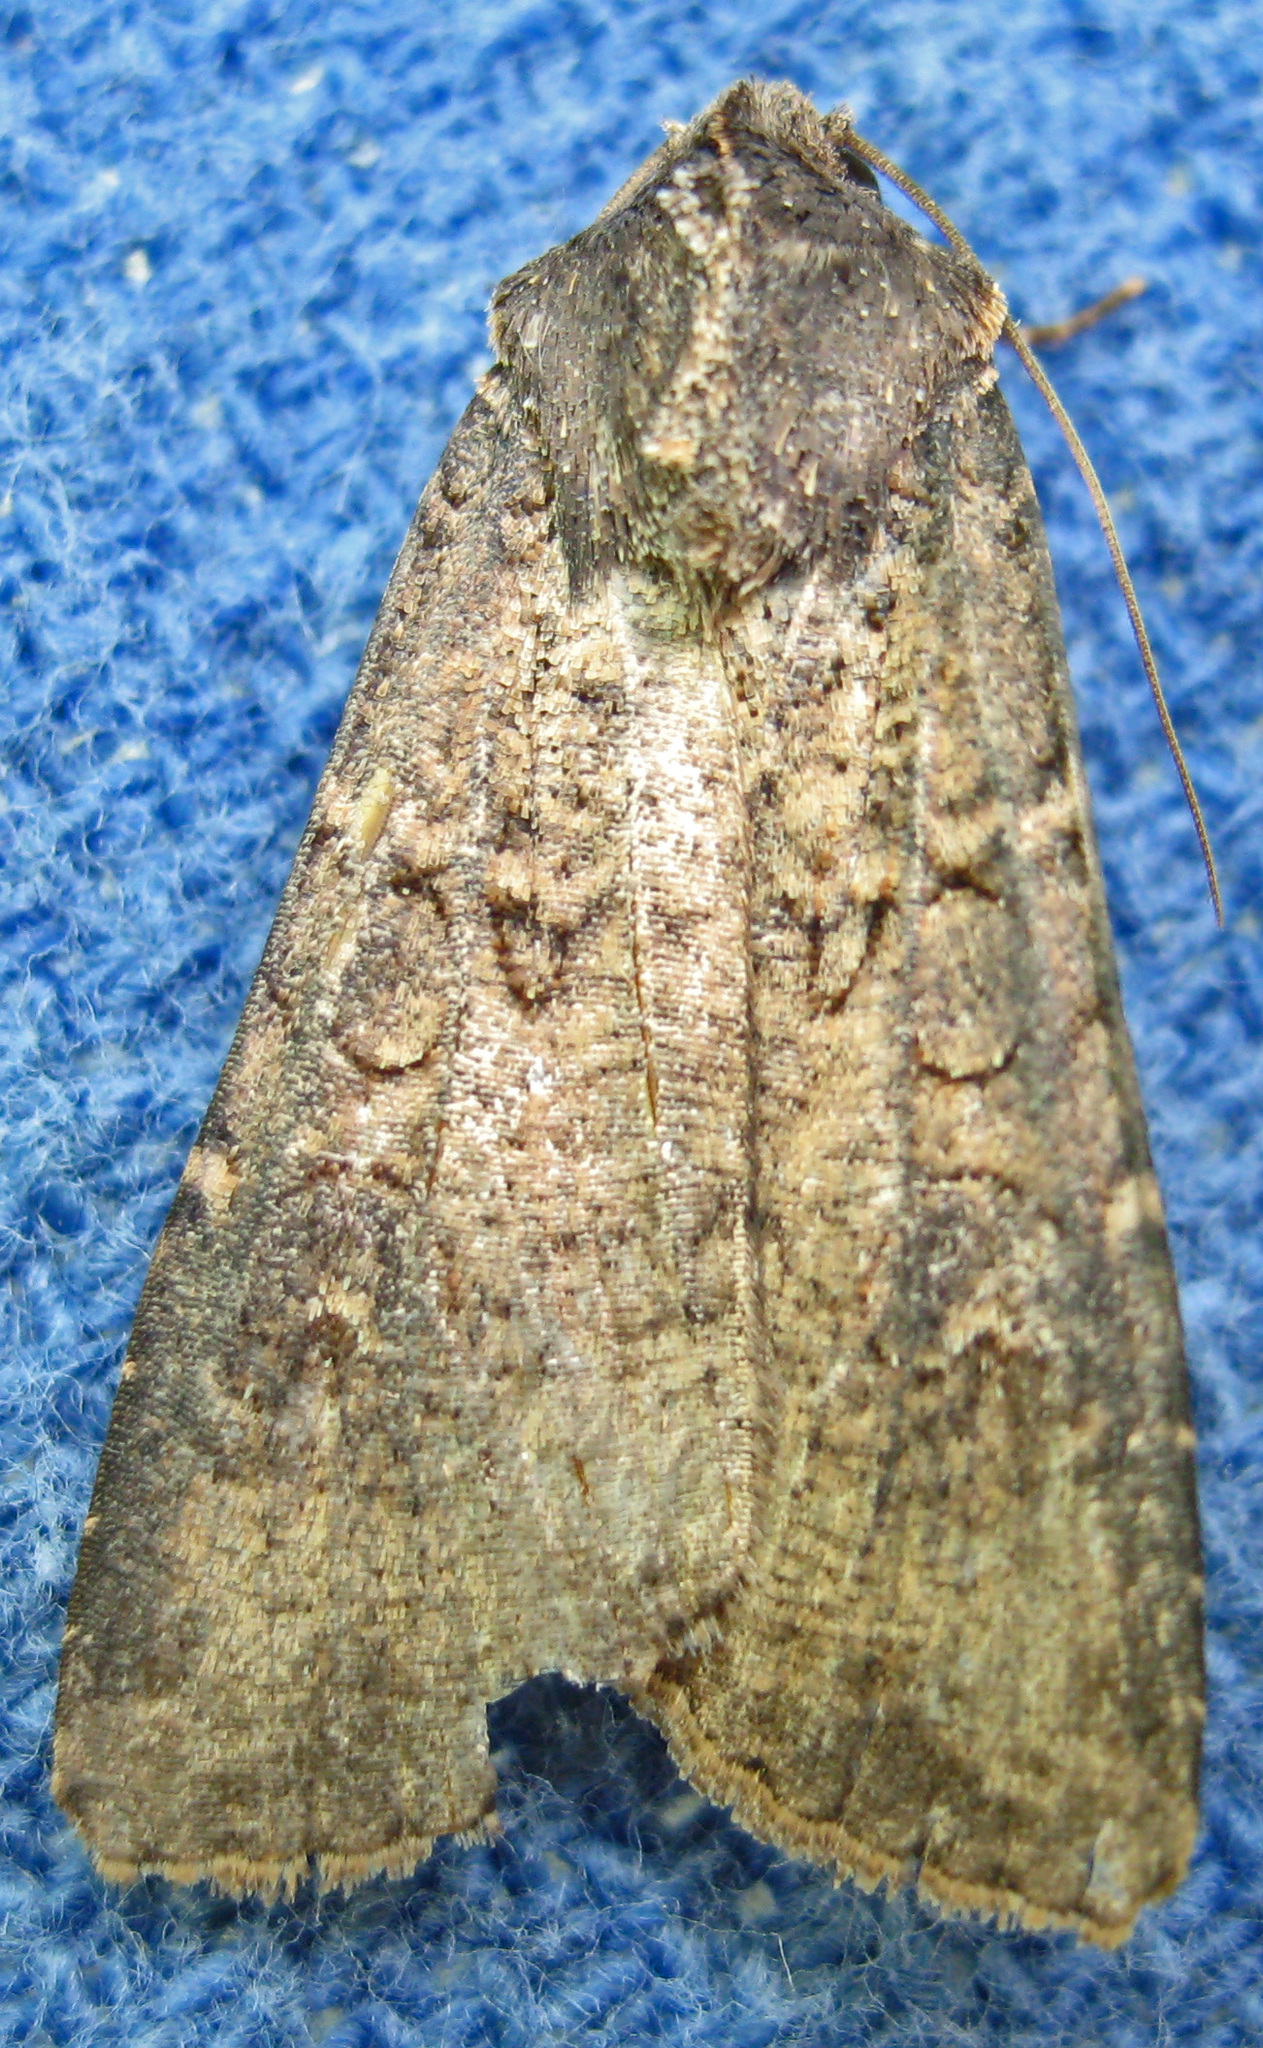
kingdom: Animalia
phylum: Arthropoda
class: Insecta
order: Lepidoptera
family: Noctuidae
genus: Peridroma
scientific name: Peridroma saucia
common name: Pearly underwing
